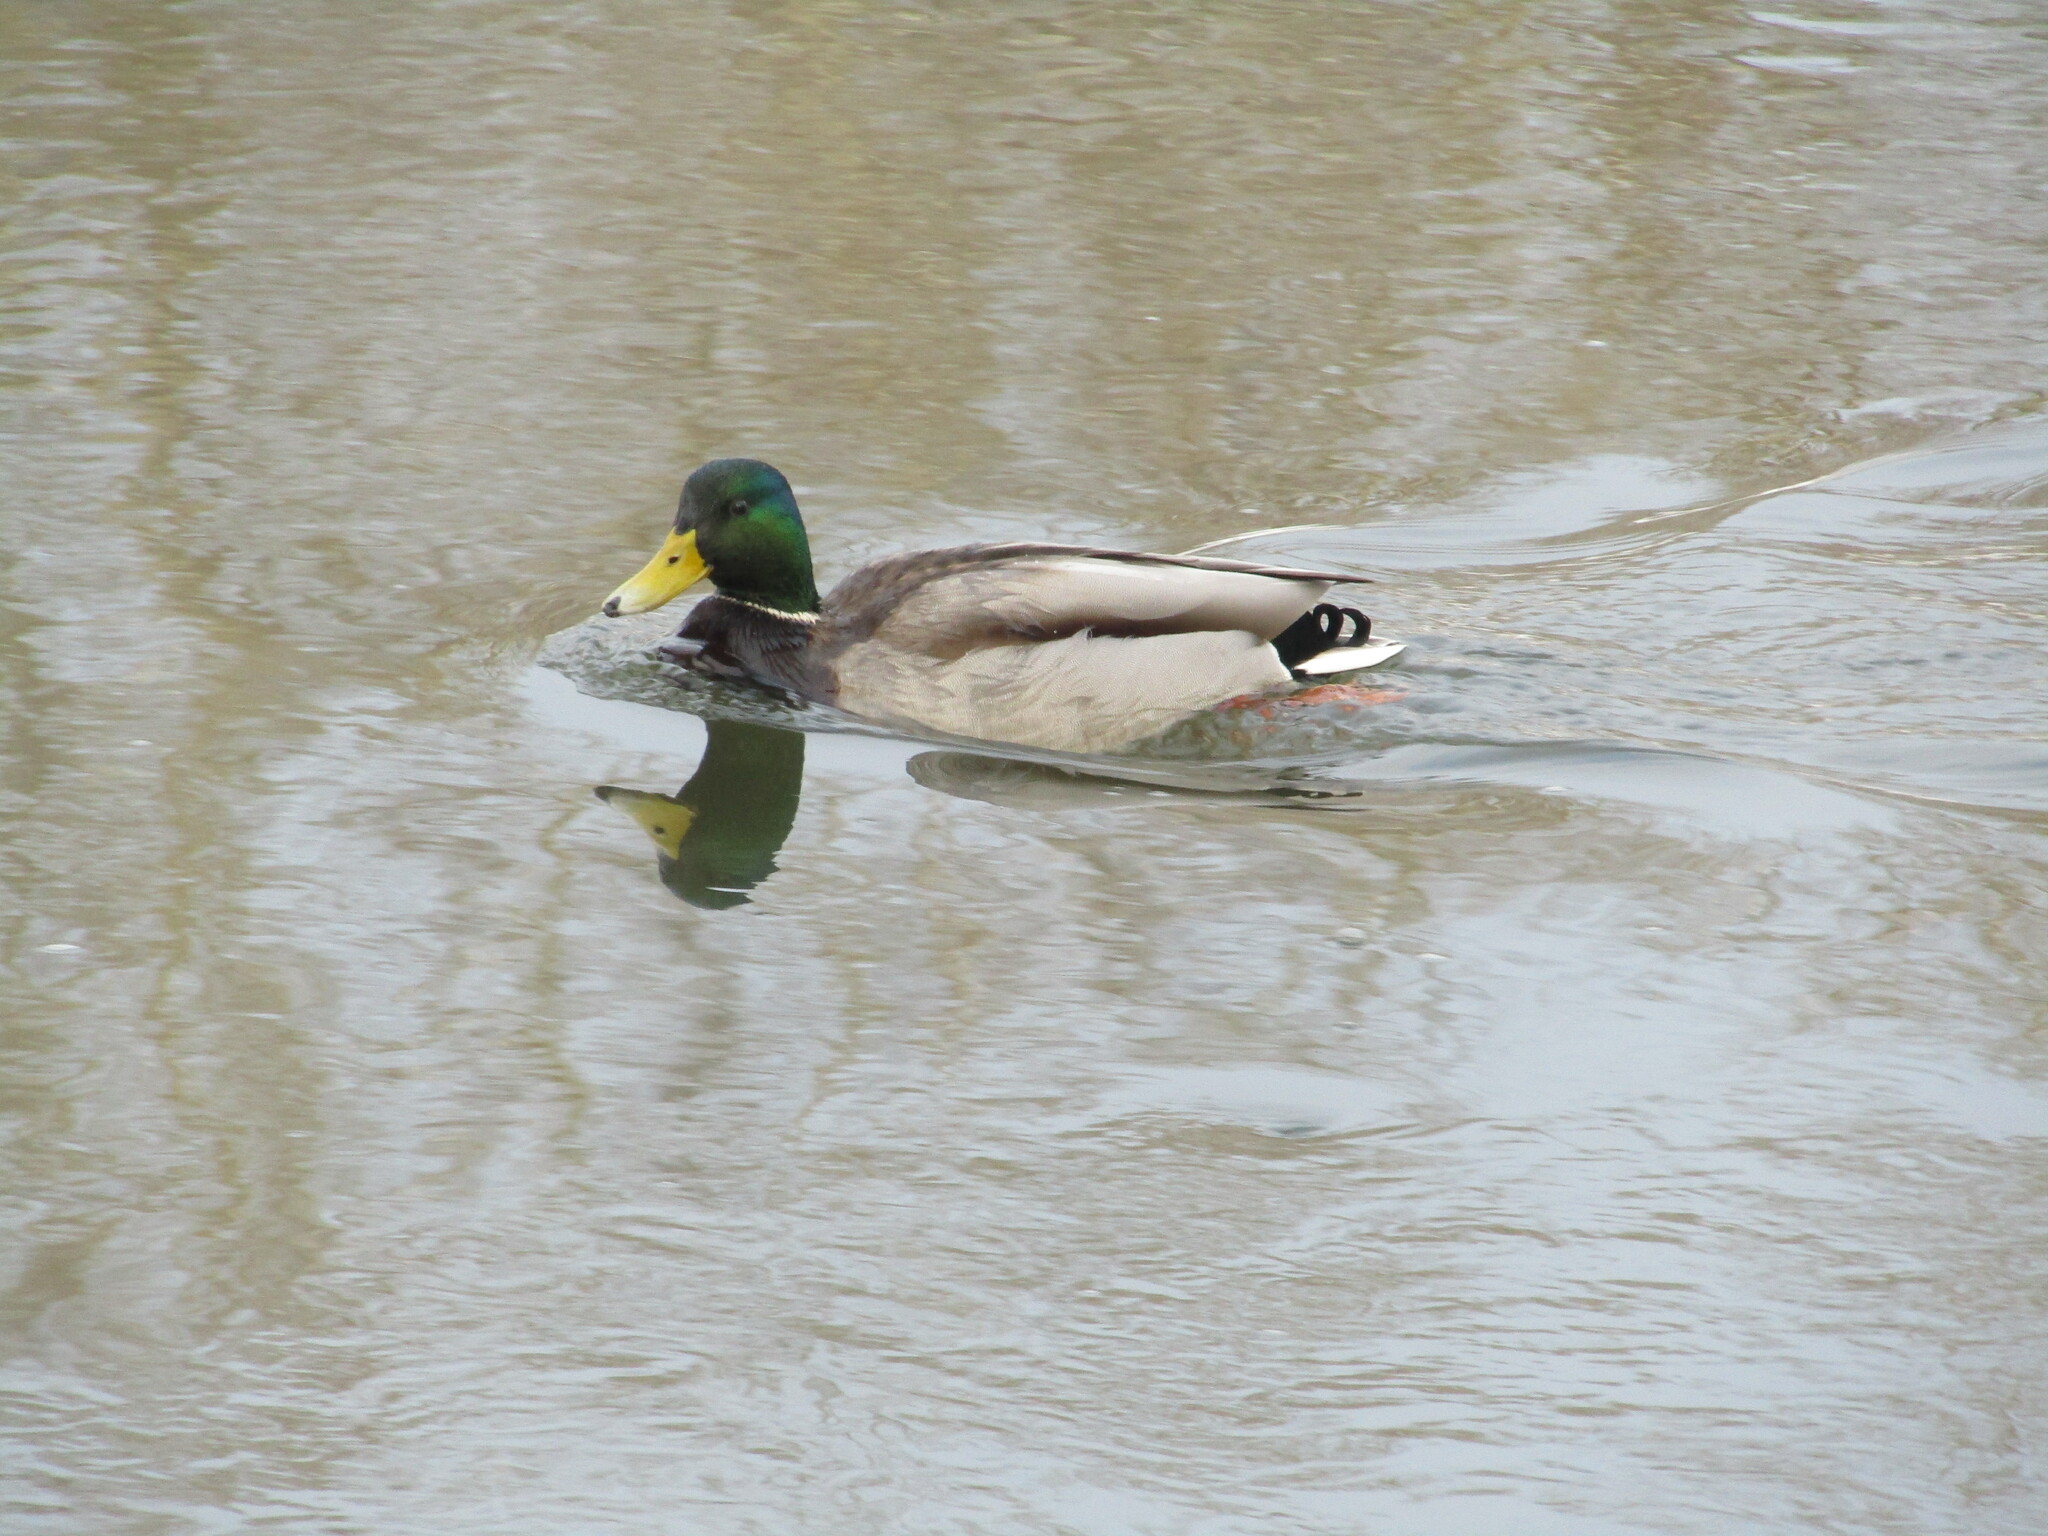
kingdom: Animalia
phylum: Chordata
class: Aves
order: Anseriformes
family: Anatidae
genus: Anas
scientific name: Anas platyrhynchos
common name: Mallard
